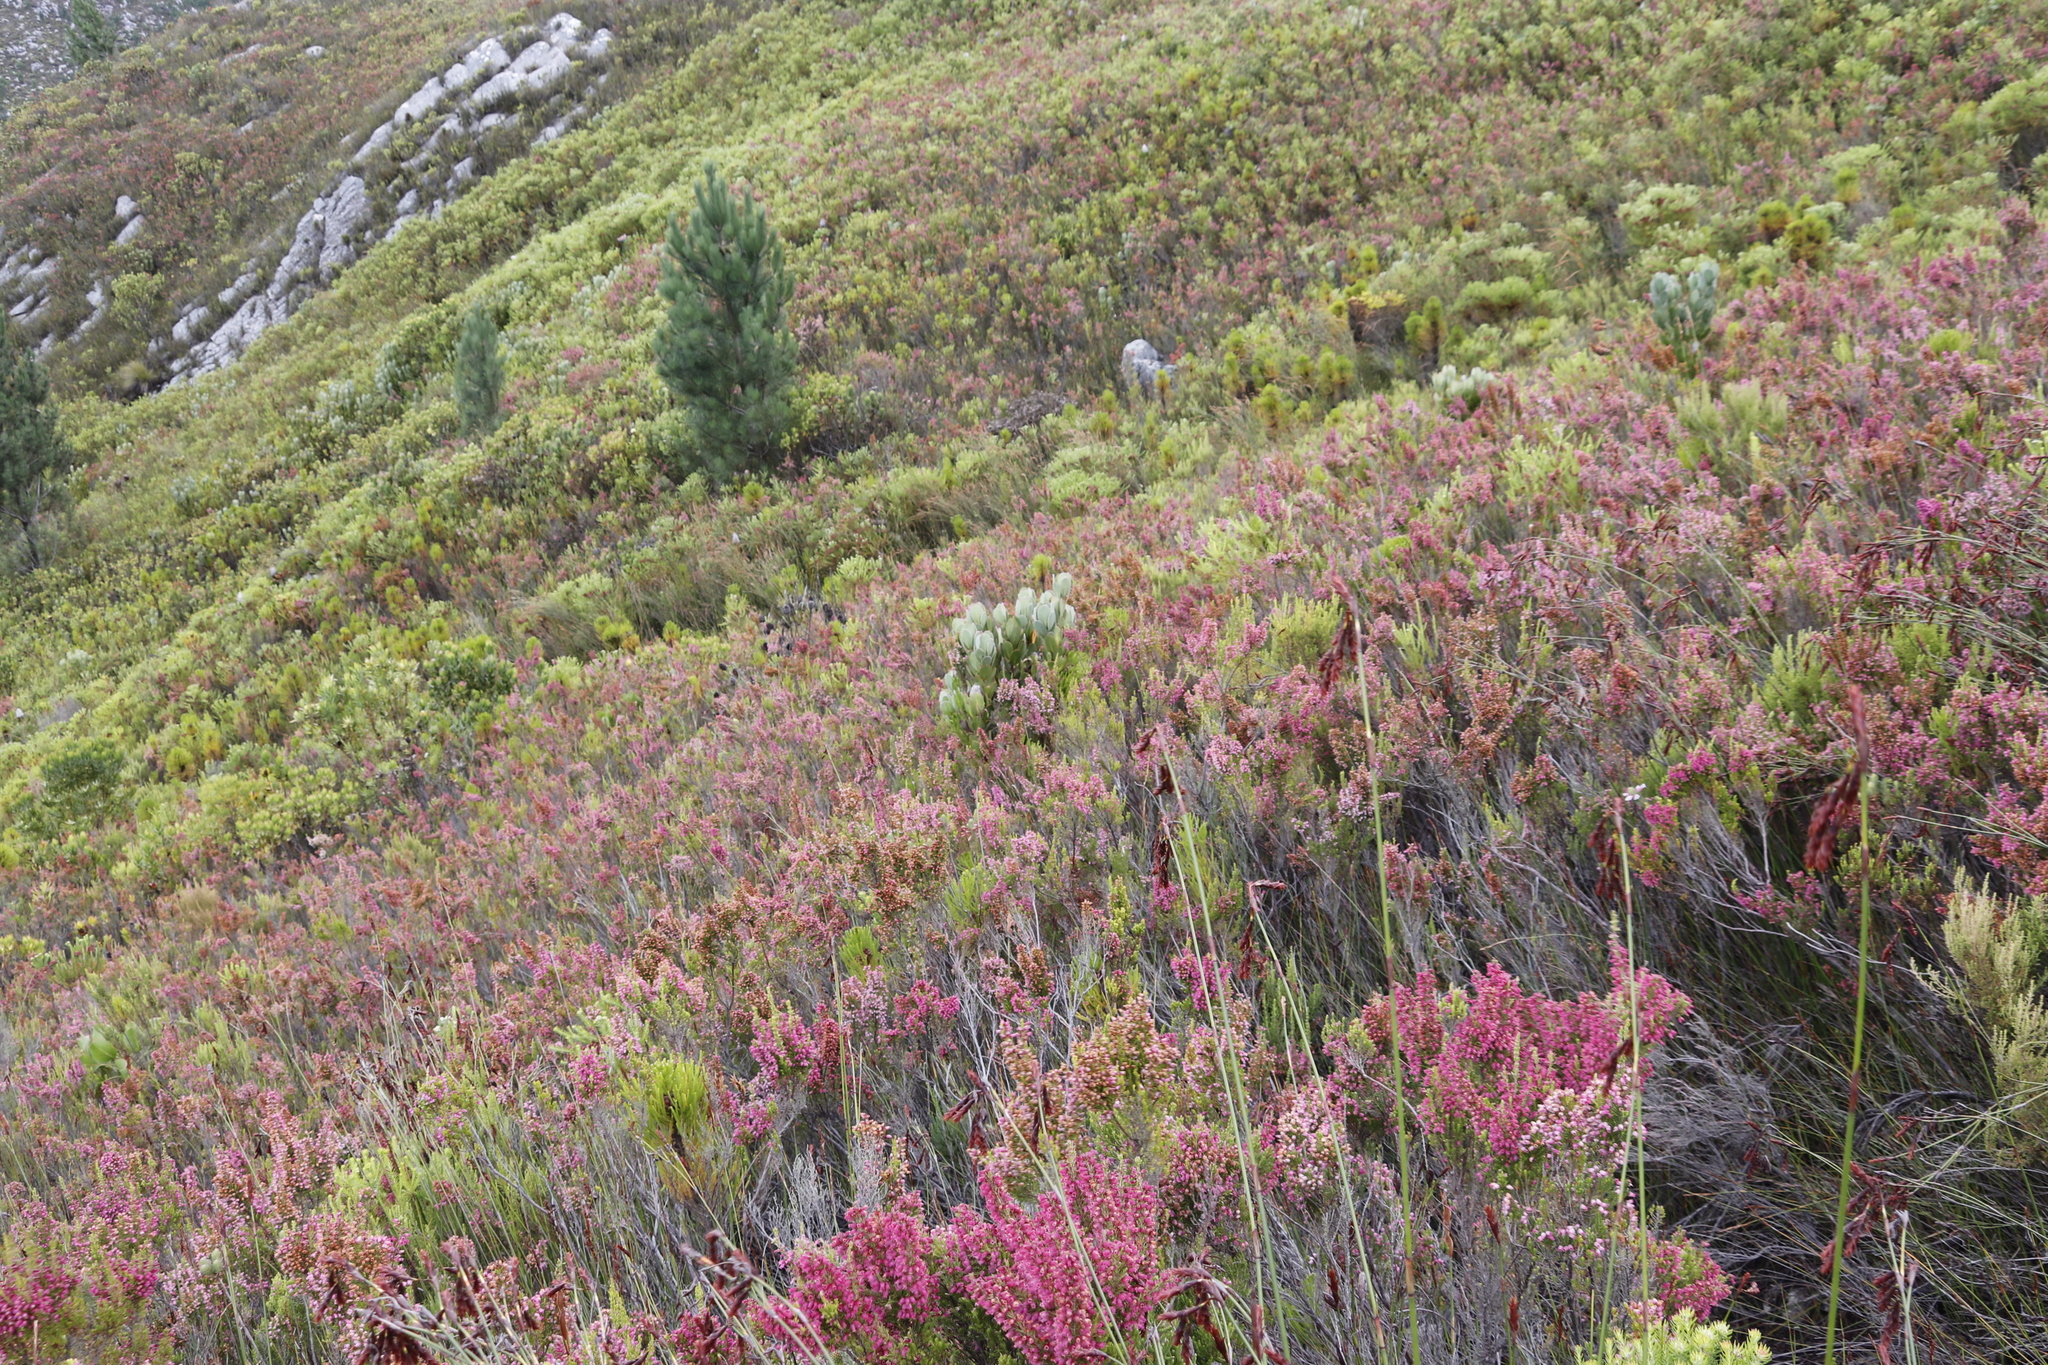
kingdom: Plantae
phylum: Tracheophyta
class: Magnoliopsida
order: Proteales
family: Proteaceae
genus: Protea
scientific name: Protea stokoei
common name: Pink sugarbush
